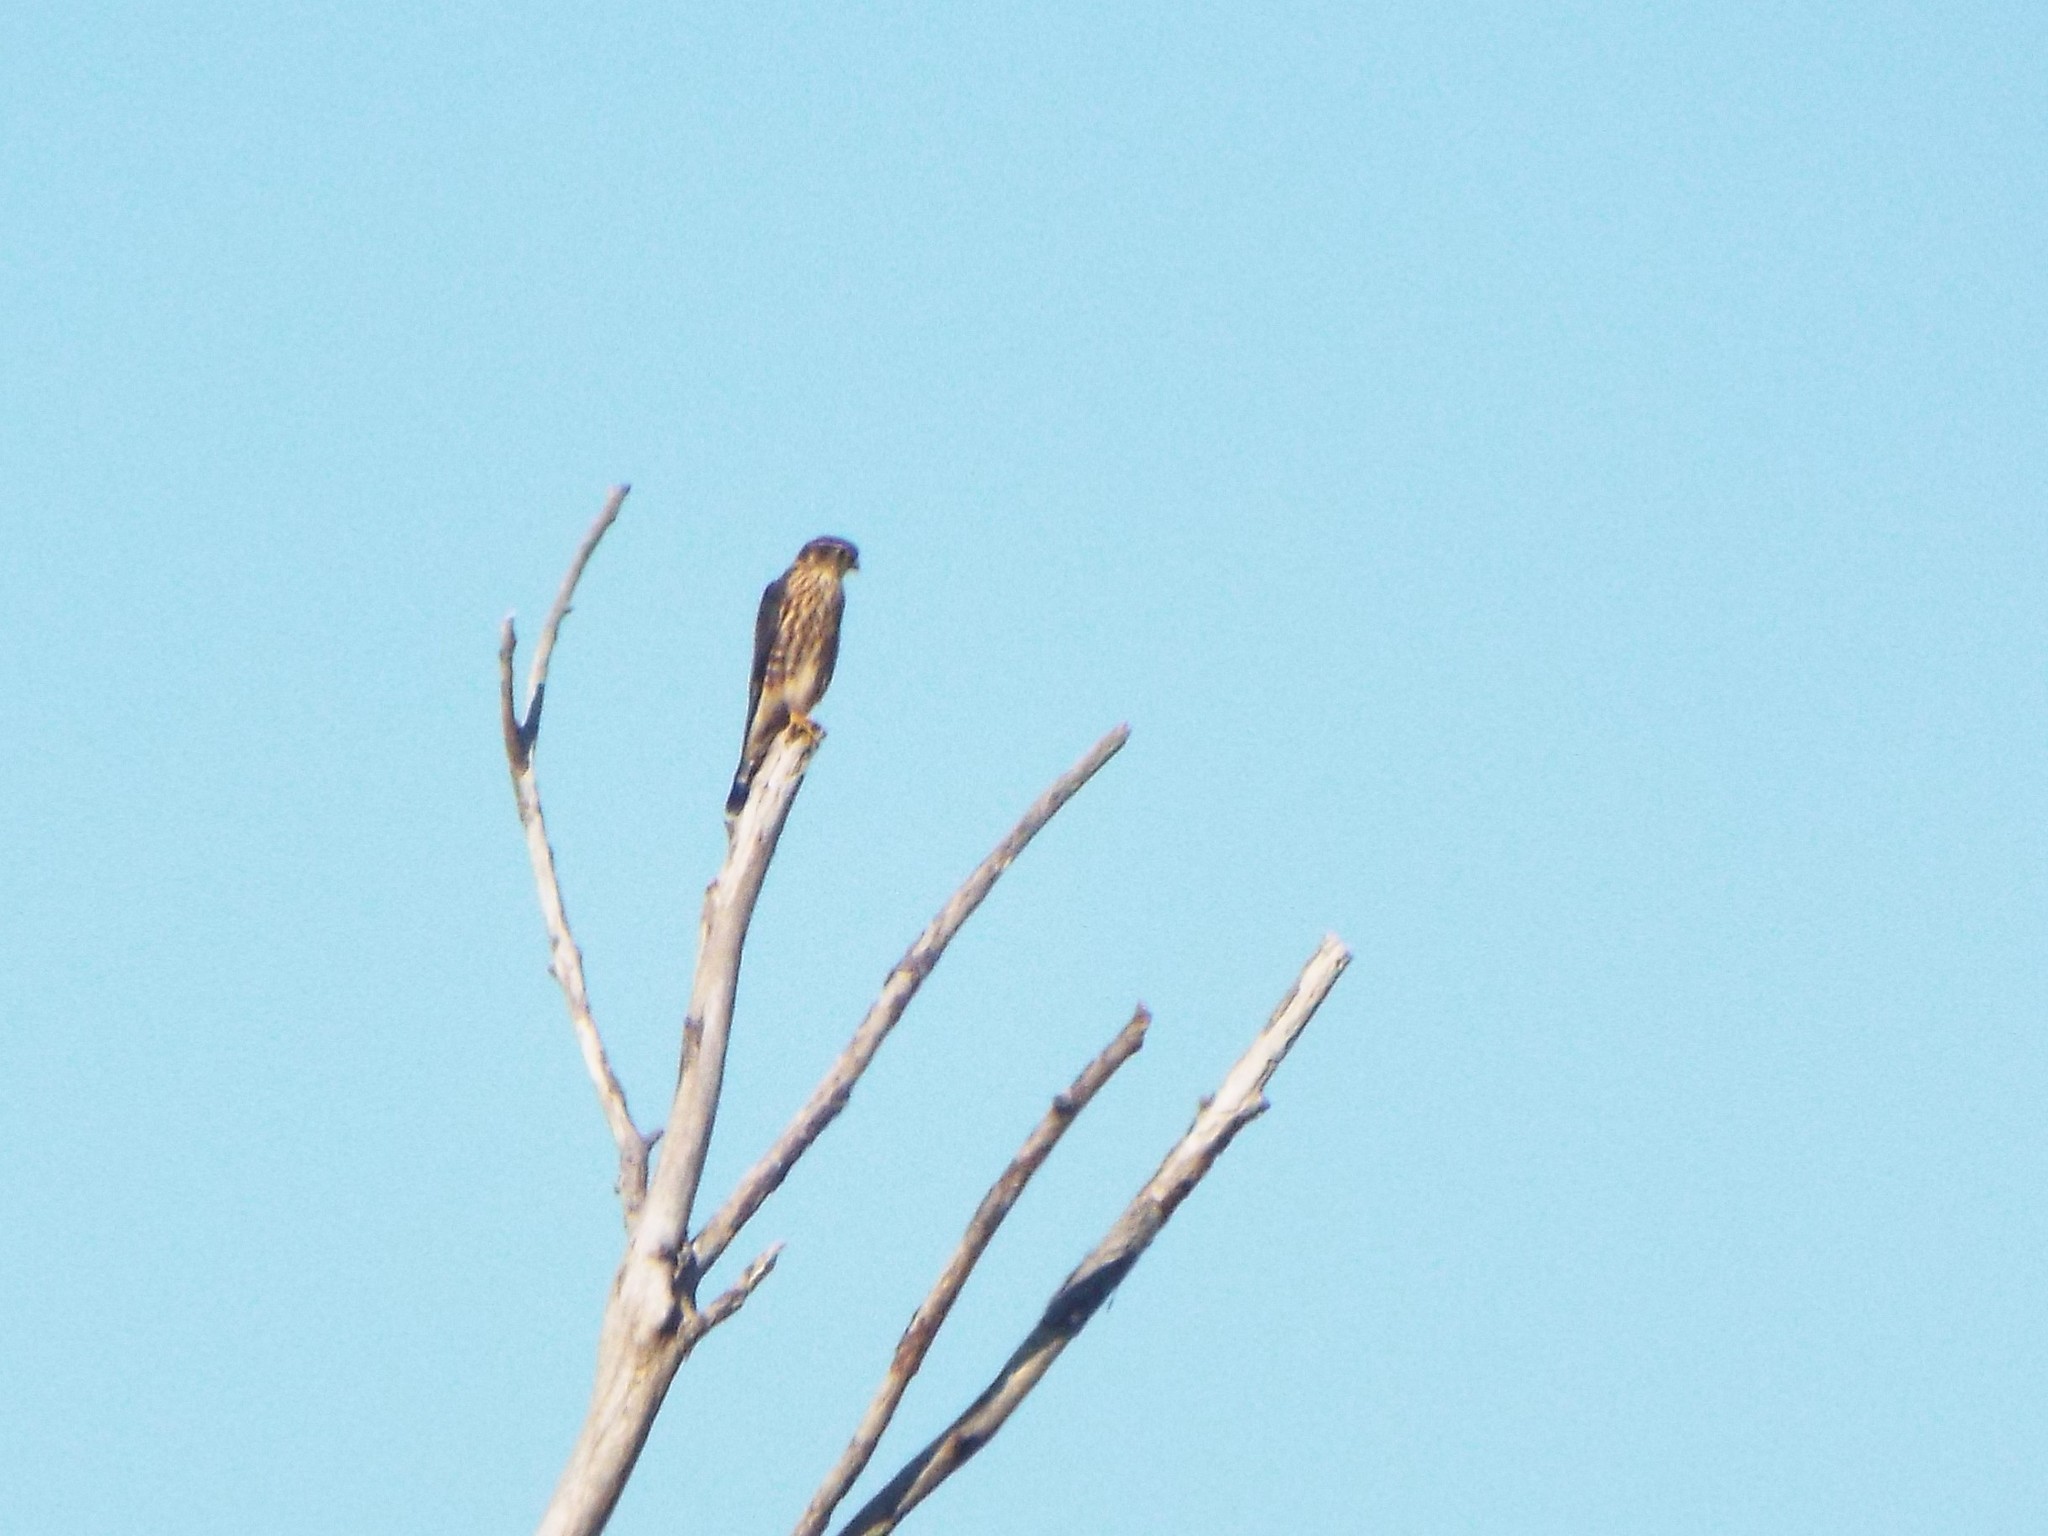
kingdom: Animalia
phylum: Chordata
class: Aves
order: Falconiformes
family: Falconidae
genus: Falco
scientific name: Falco columbarius
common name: Merlin
